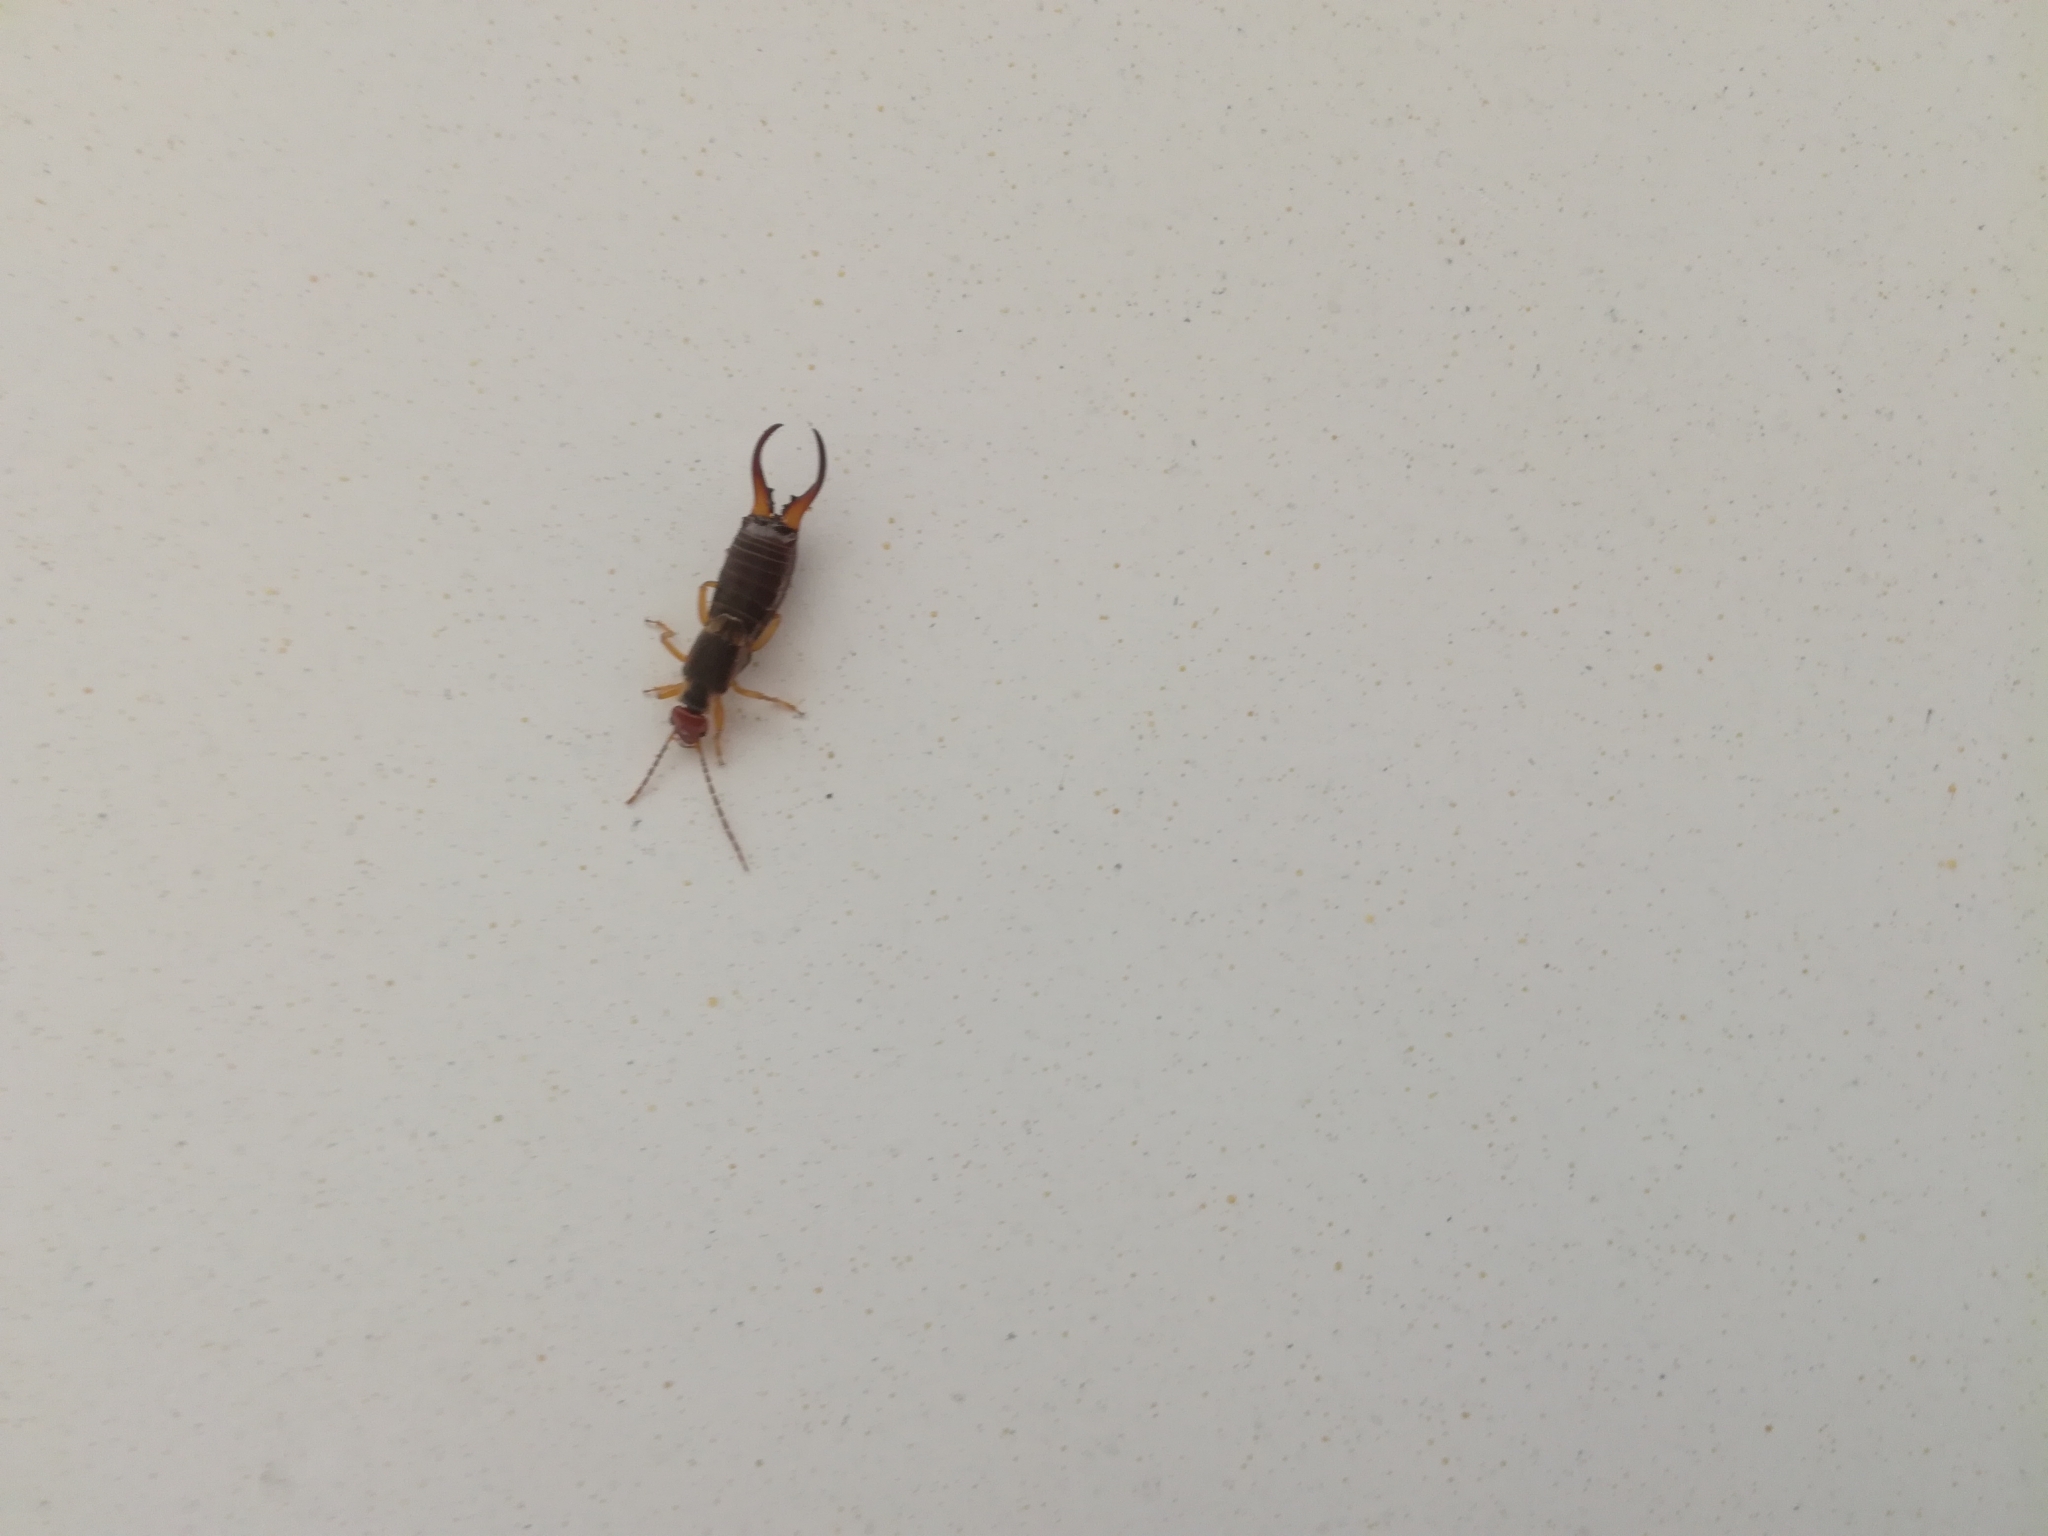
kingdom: Animalia
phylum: Arthropoda
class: Insecta
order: Dermaptera
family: Forficulidae
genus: Forficula
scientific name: Forficula
